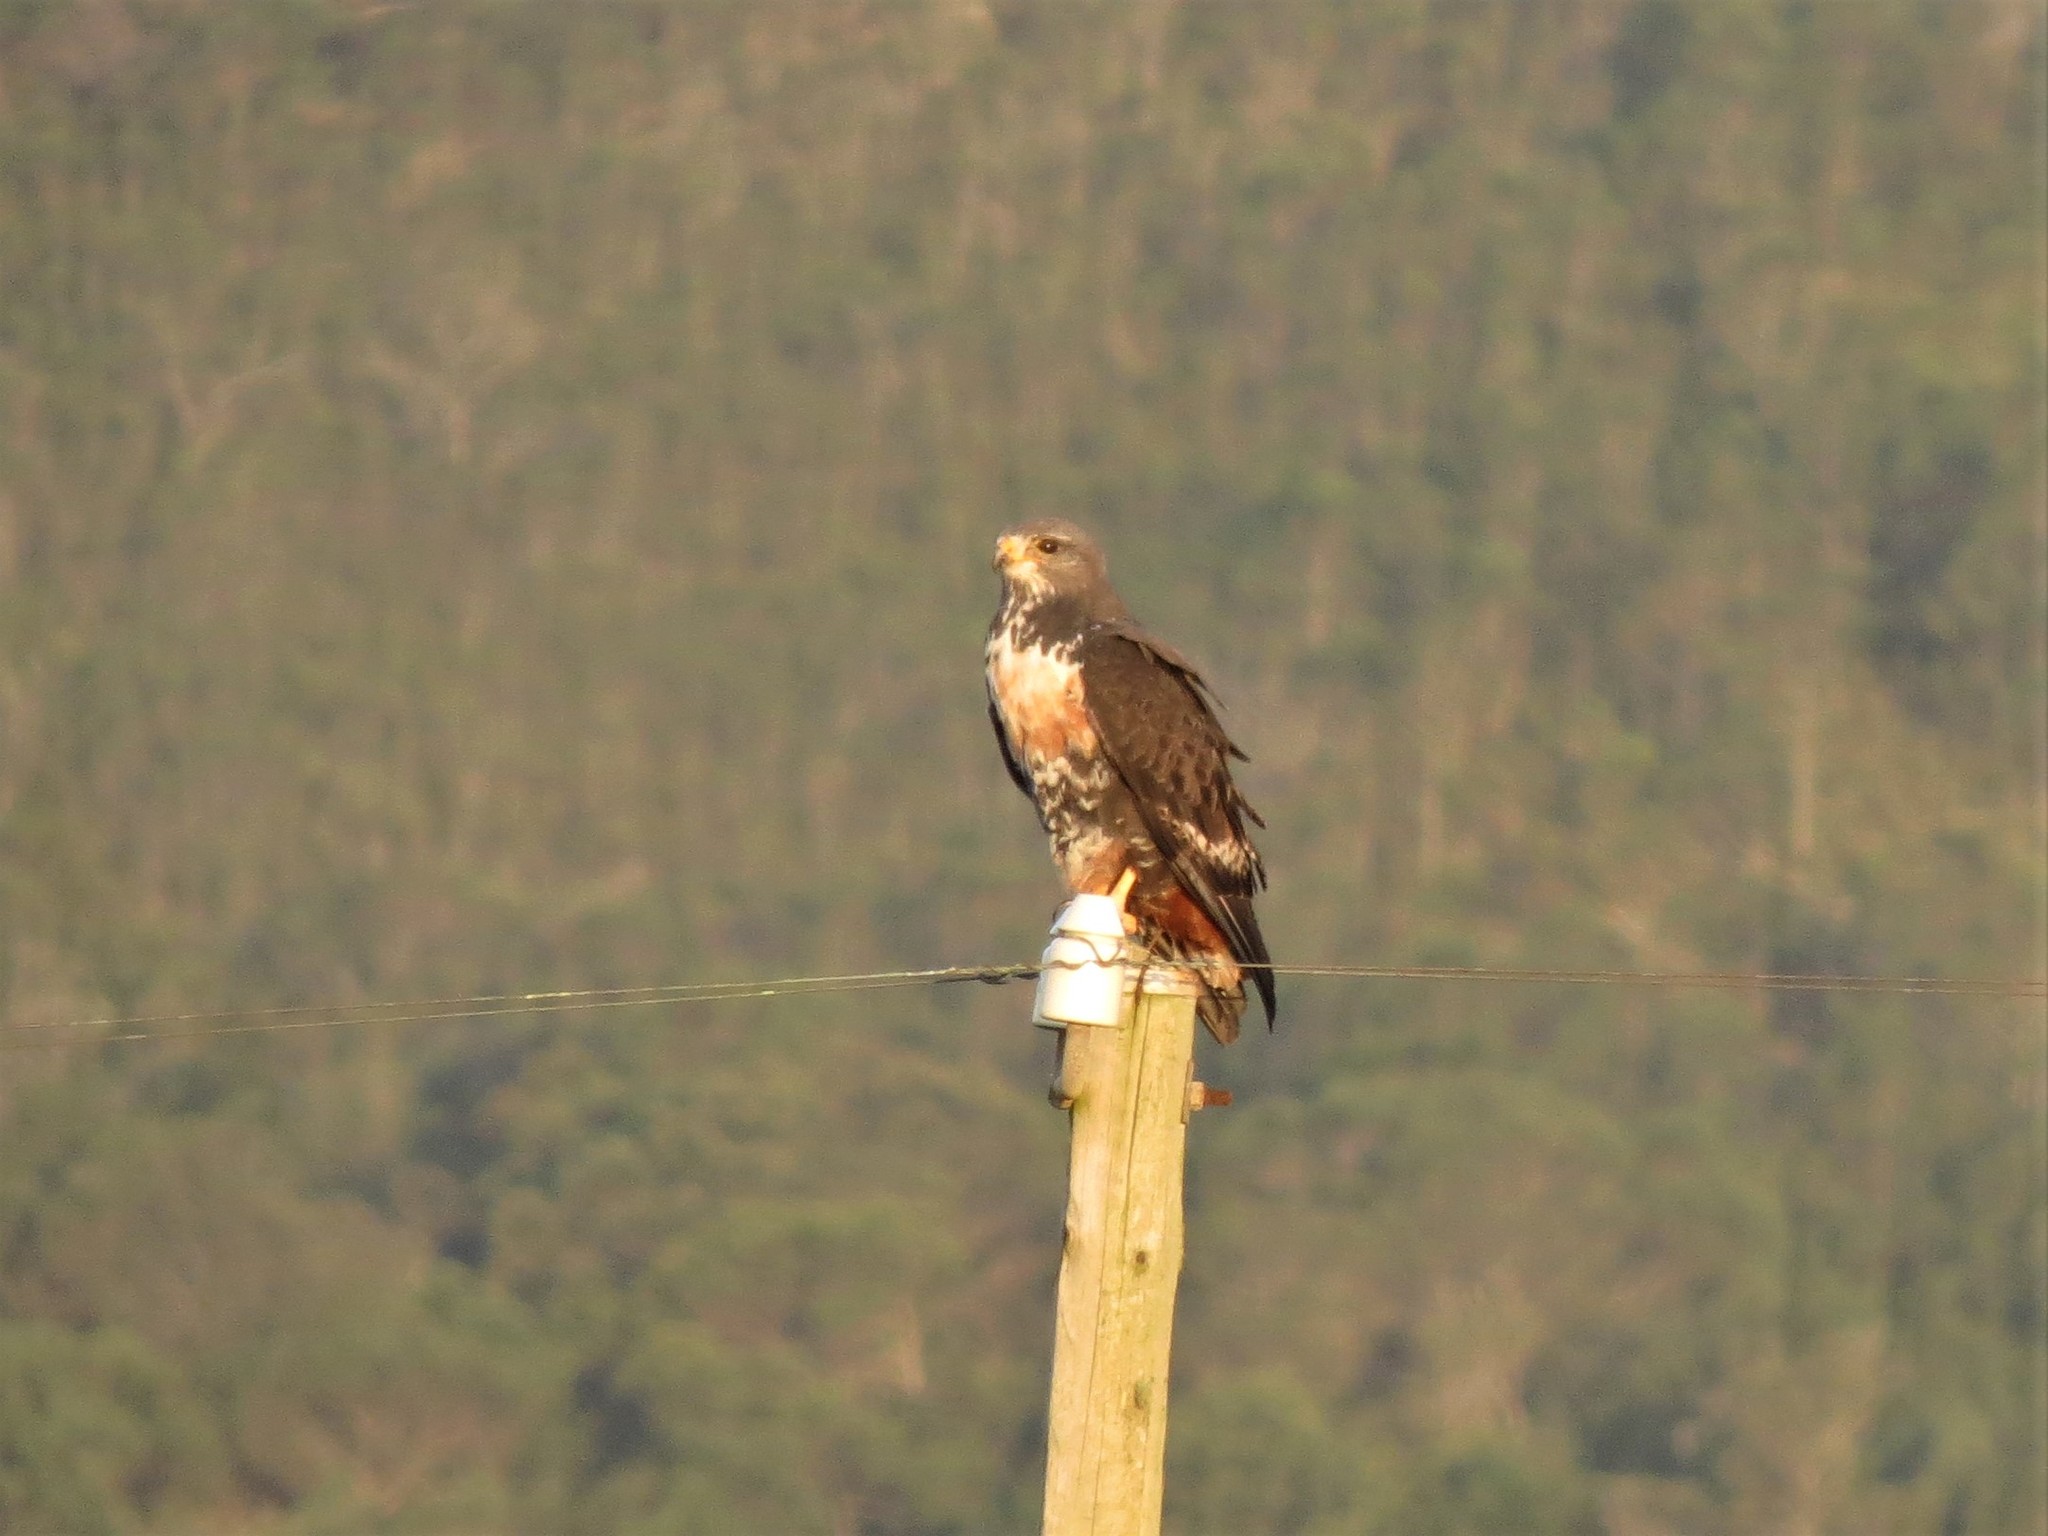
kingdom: Animalia
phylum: Chordata
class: Aves
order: Accipitriformes
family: Accipitridae
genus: Buteo
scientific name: Buteo rufofuscus
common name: Jackal buzzard
